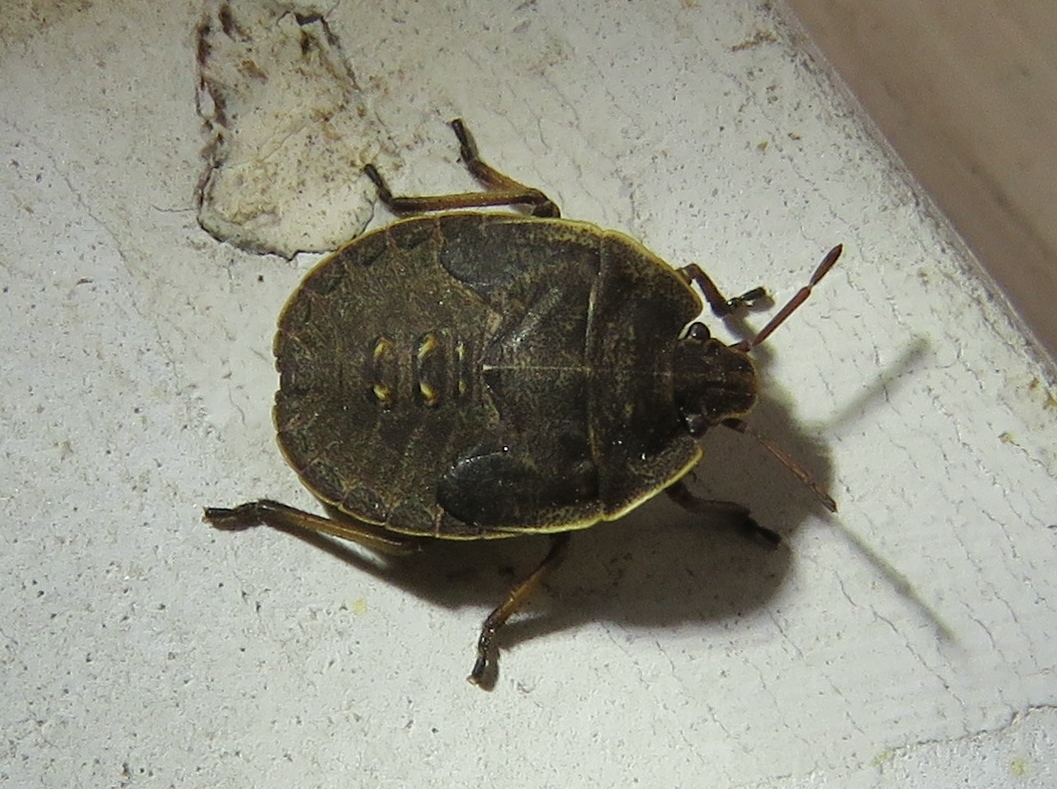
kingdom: Animalia
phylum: Arthropoda
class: Insecta
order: Hemiptera
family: Pentatomidae
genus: Menecles
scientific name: Menecles insertus
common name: Elf shoe stink bug
